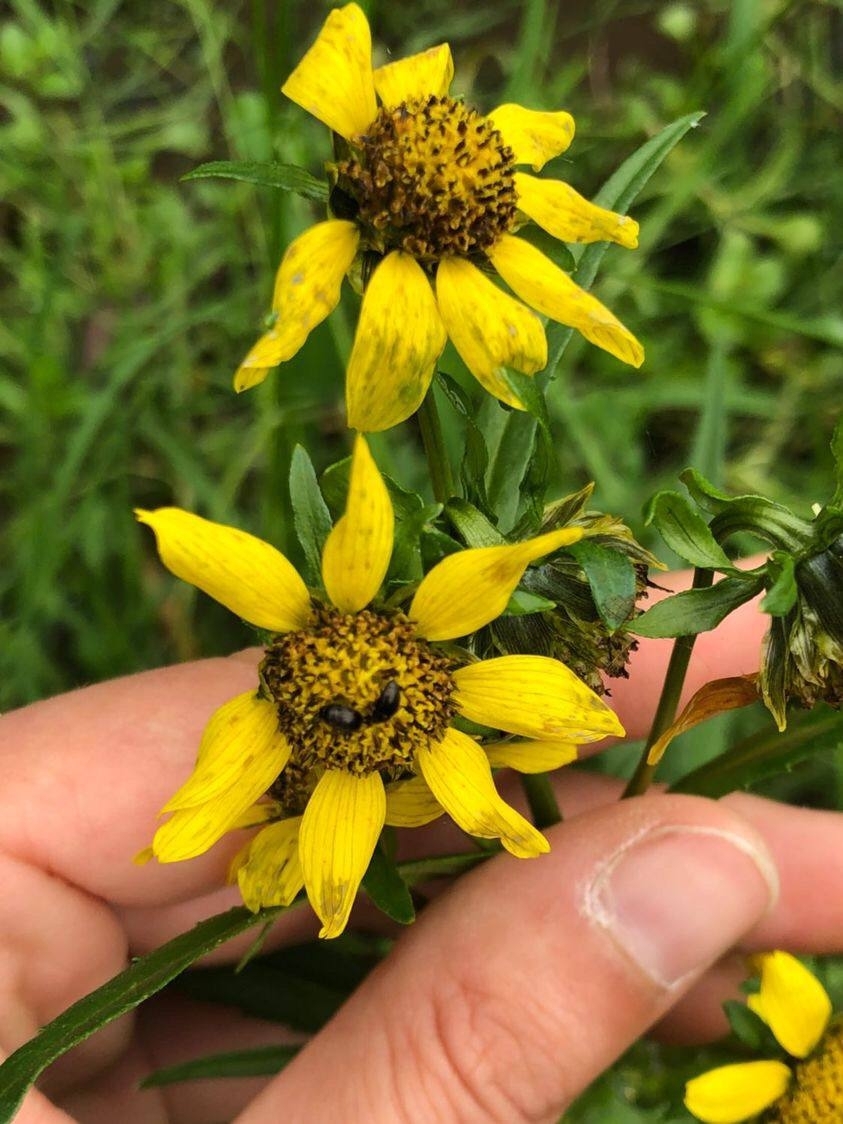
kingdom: Plantae
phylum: Tracheophyta
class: Magnoliopsida
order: Asterales
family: Asteraceae
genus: Bidens
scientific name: Bidens cernua
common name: Nodding bur-marigold
